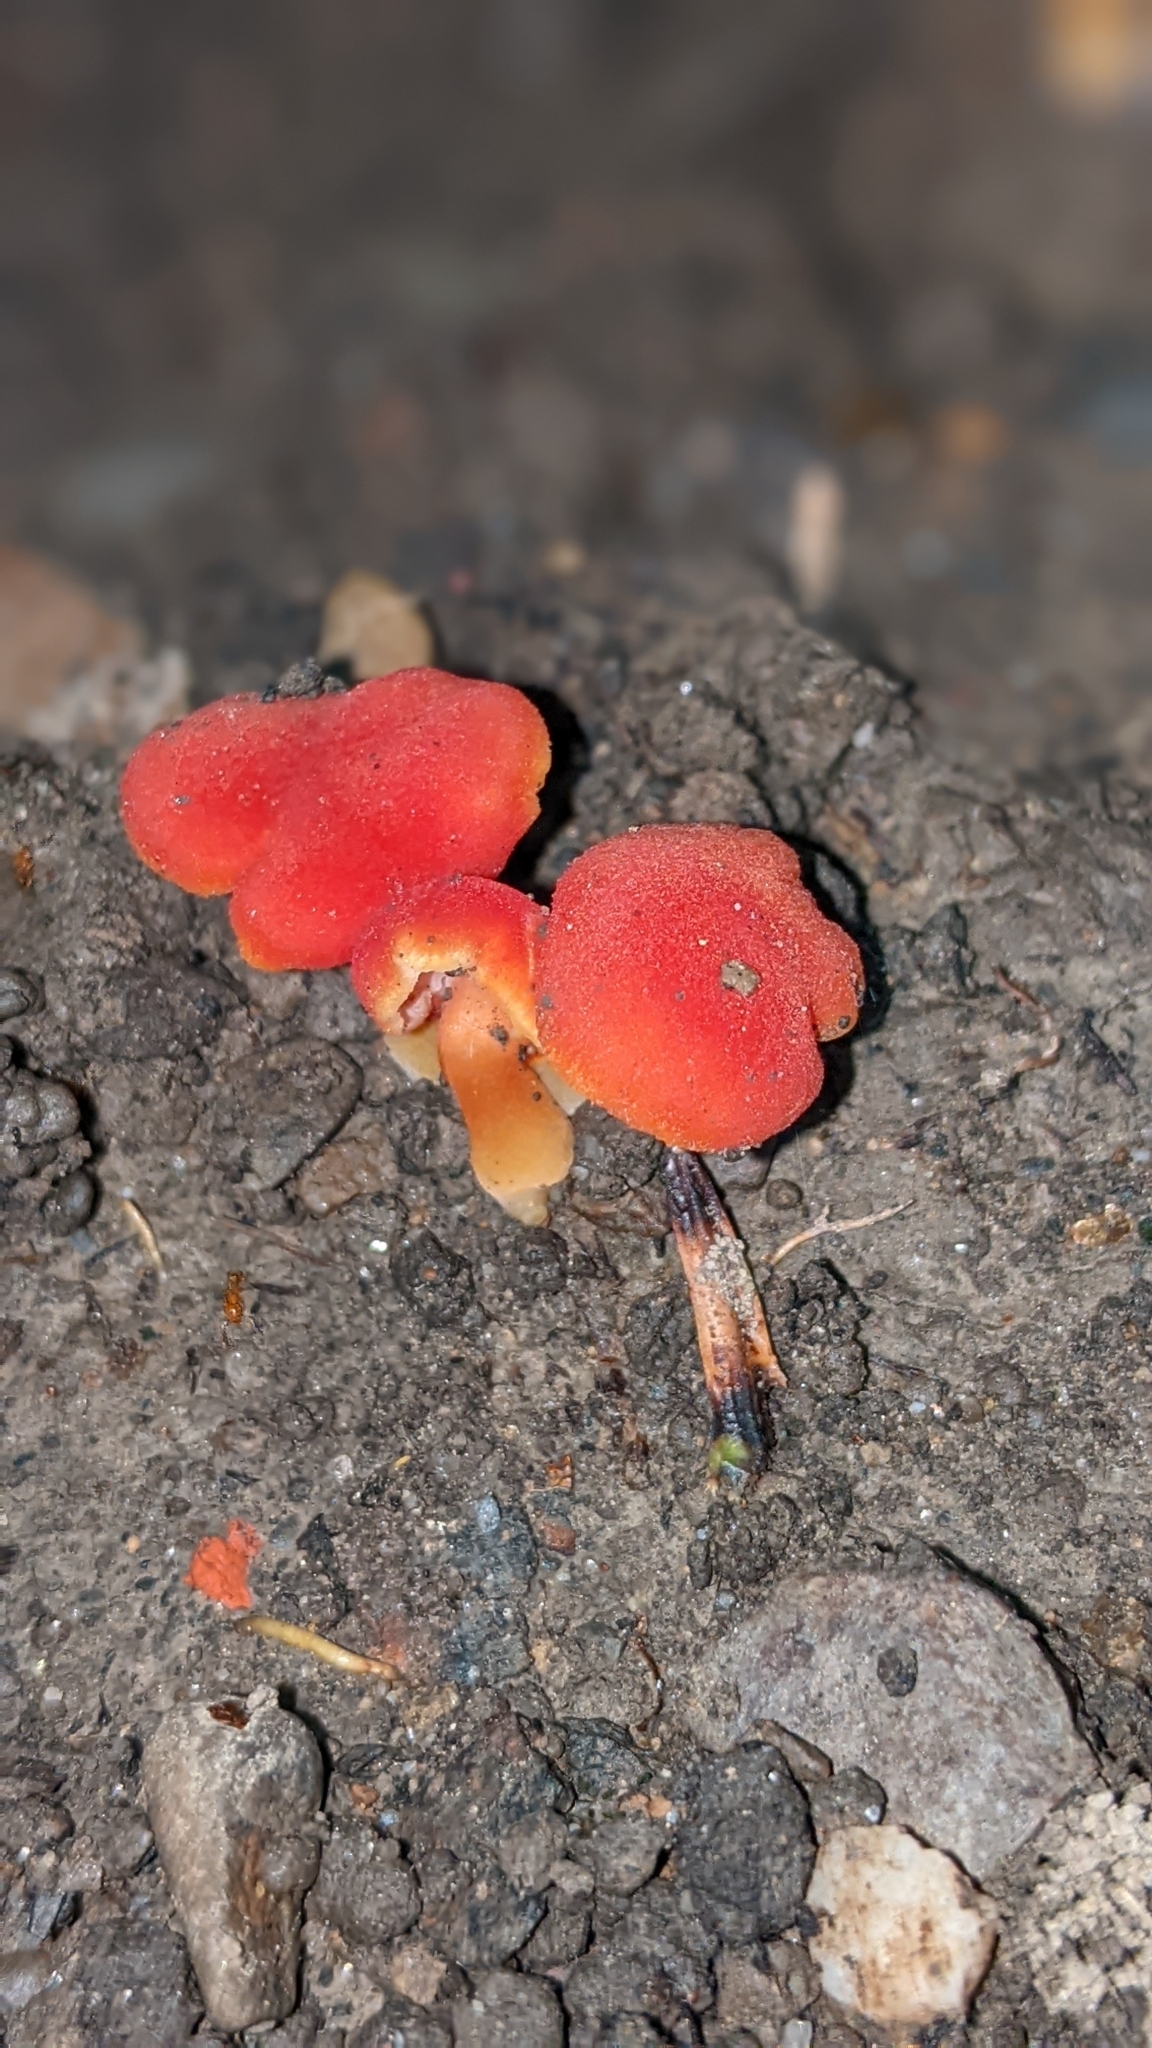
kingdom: Fungi
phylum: Basidiomycota
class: Agaricomycetes
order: Agaricales
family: Hygrophoraceae
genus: Hygrocybe
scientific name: Hygrocybe miniata
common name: Vermilion waxcap
